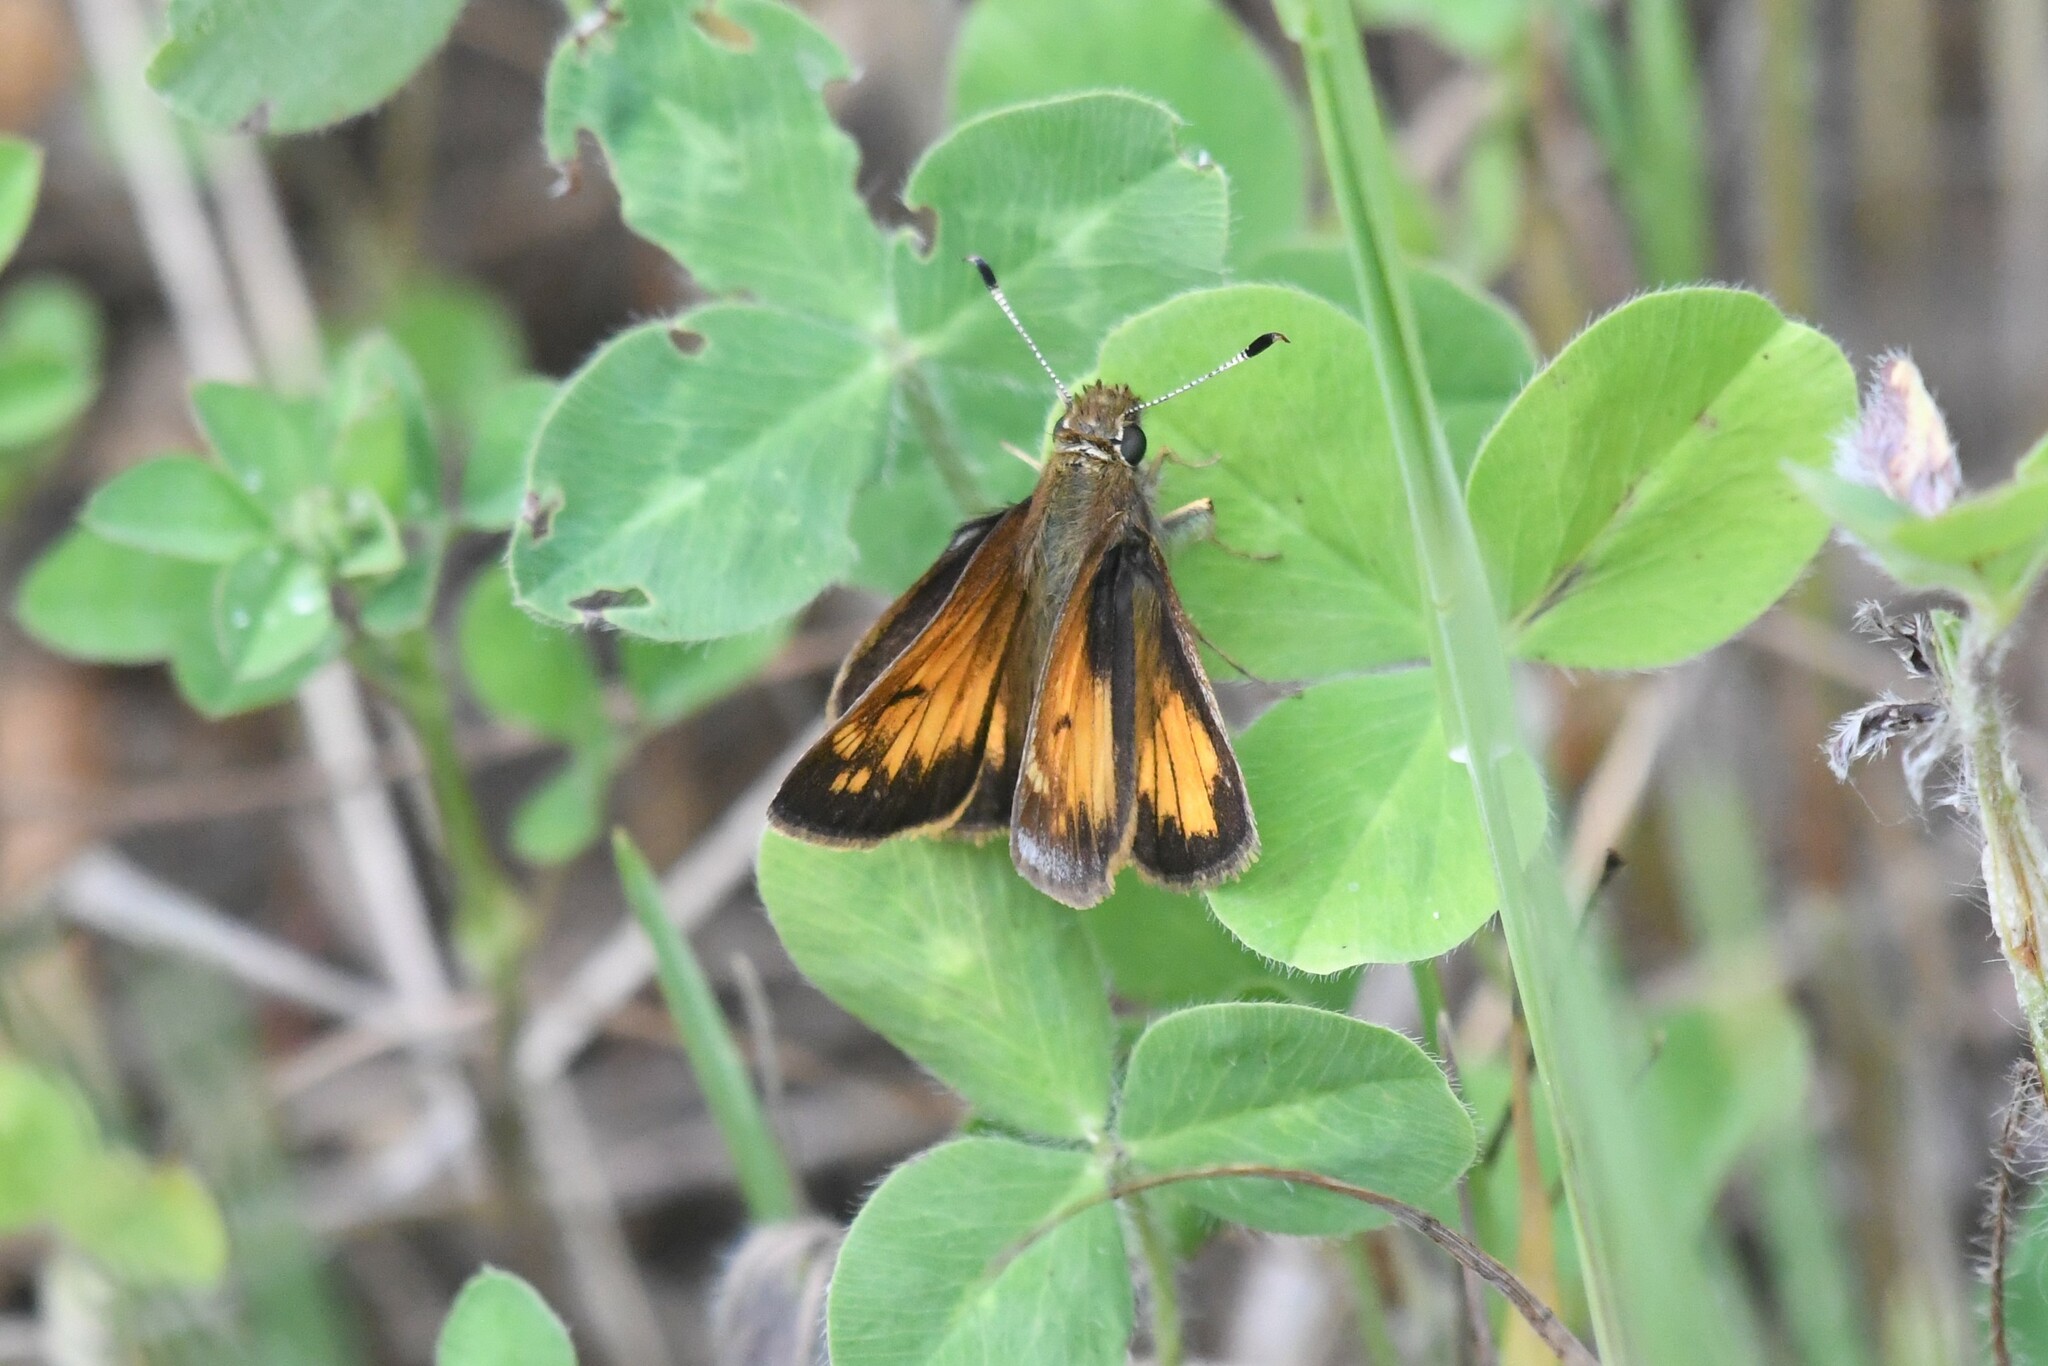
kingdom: Animalia
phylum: Arthropoda
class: Insecta
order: Lepidoptera
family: Hesperiidae
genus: Lon
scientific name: Lon hobomok
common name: Hobomok skipper
